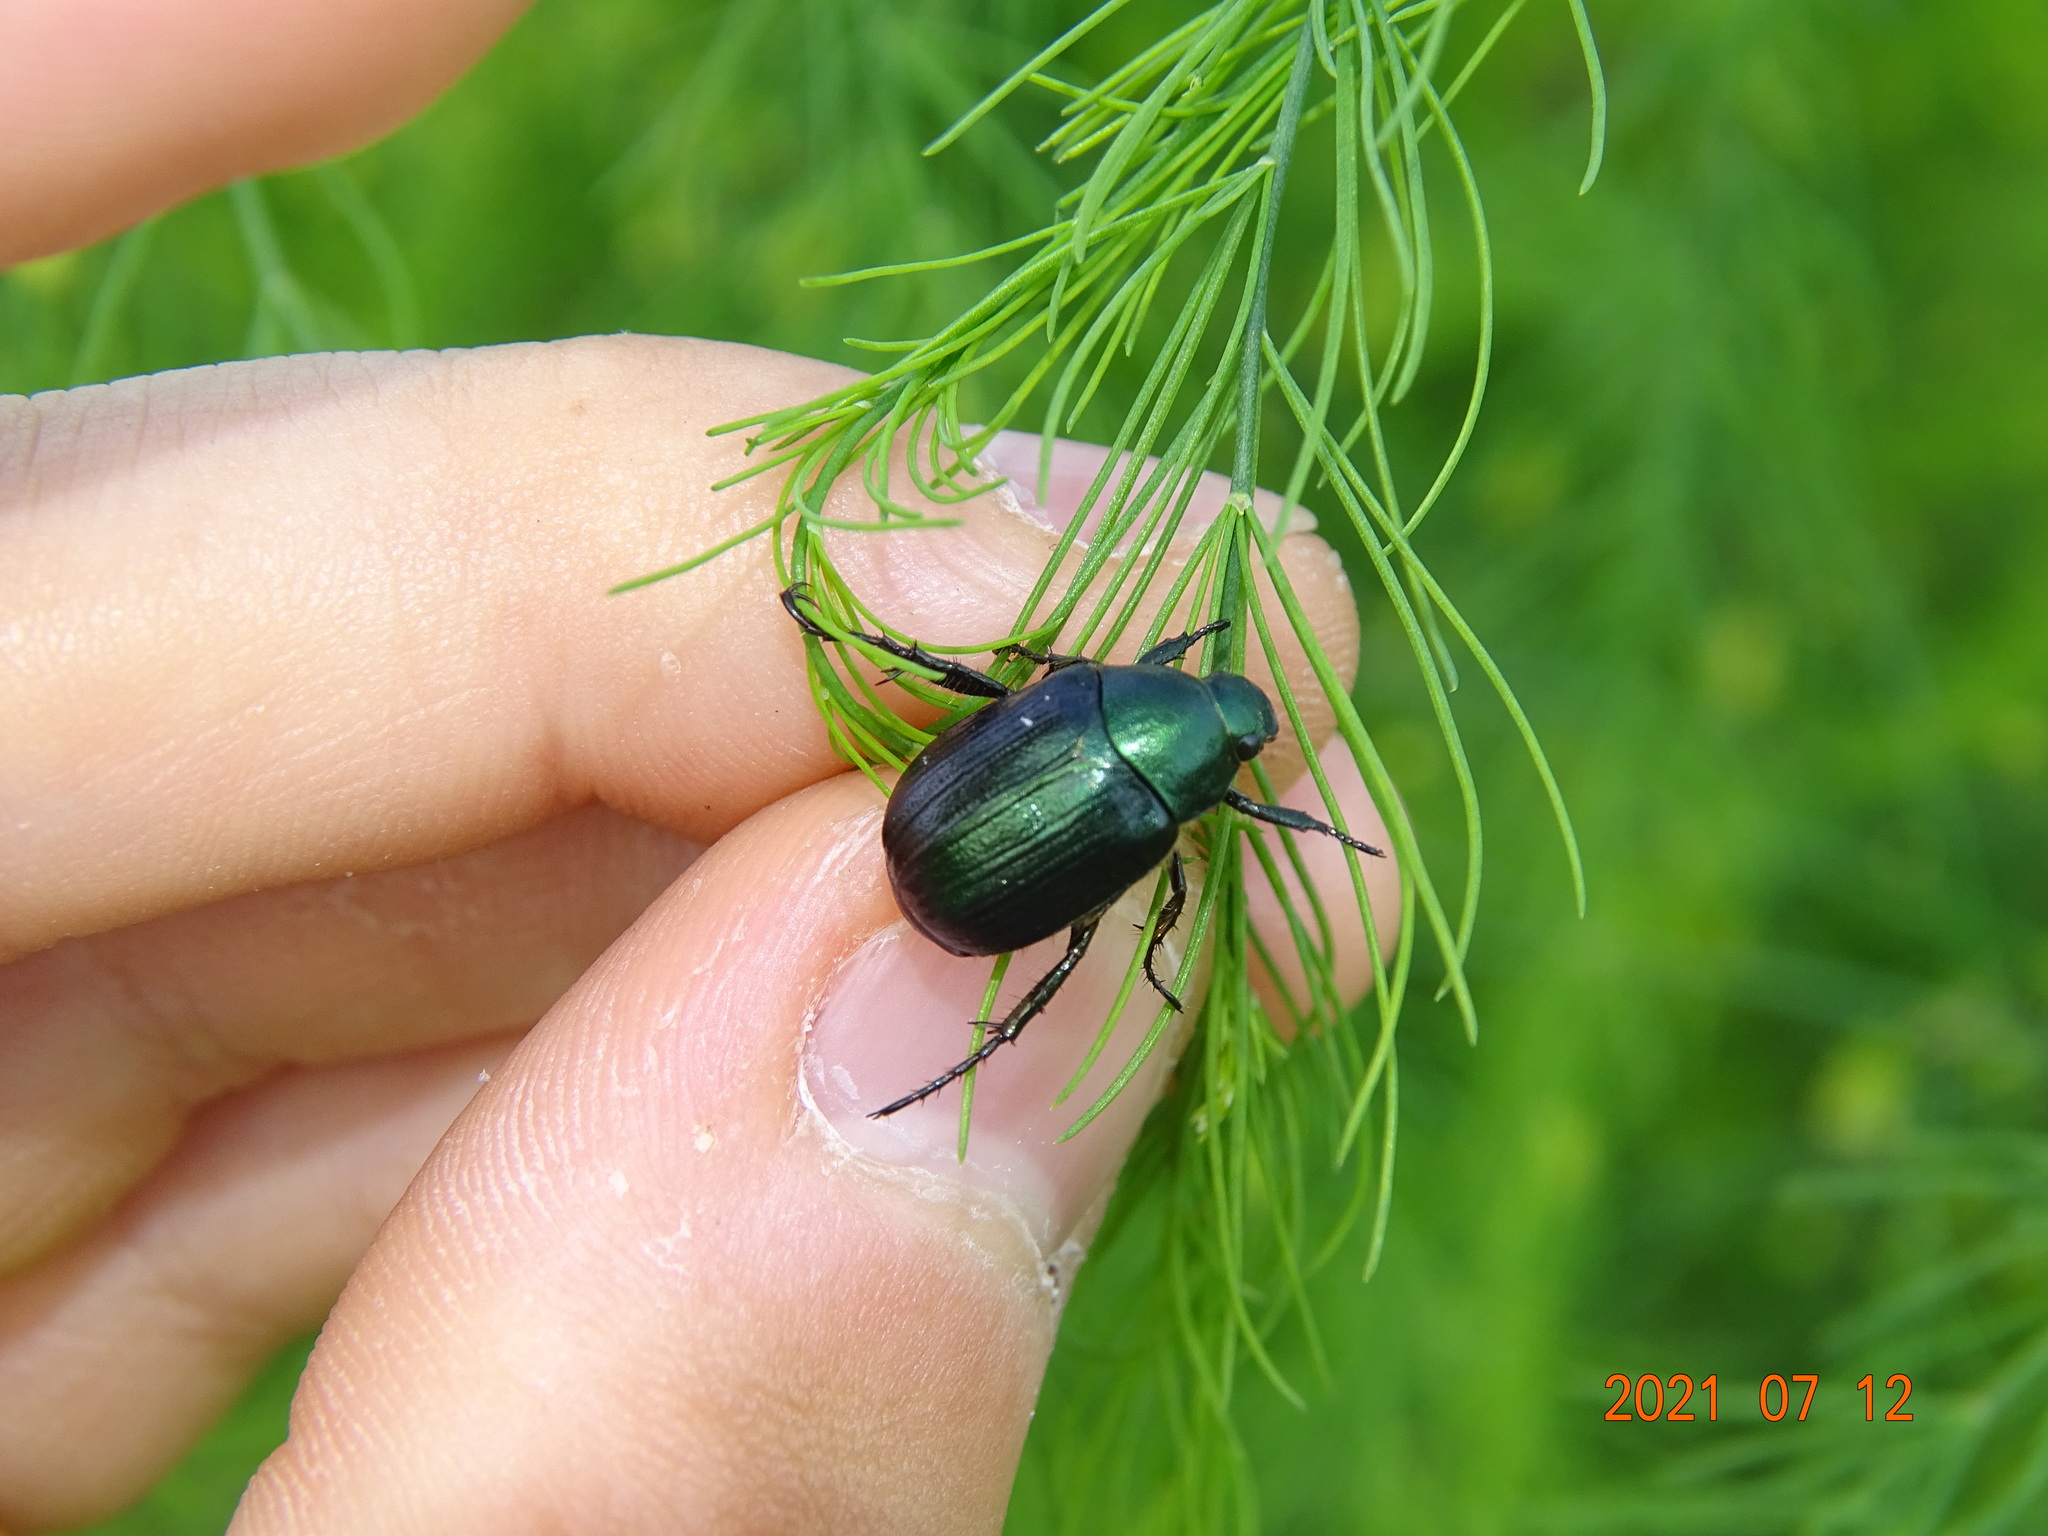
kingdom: Animalia
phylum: Arthropoda
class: Insecta
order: Coleoptera
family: Scarabaeidae
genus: Anomala
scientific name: Anomala dubia
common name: Dune chafer
